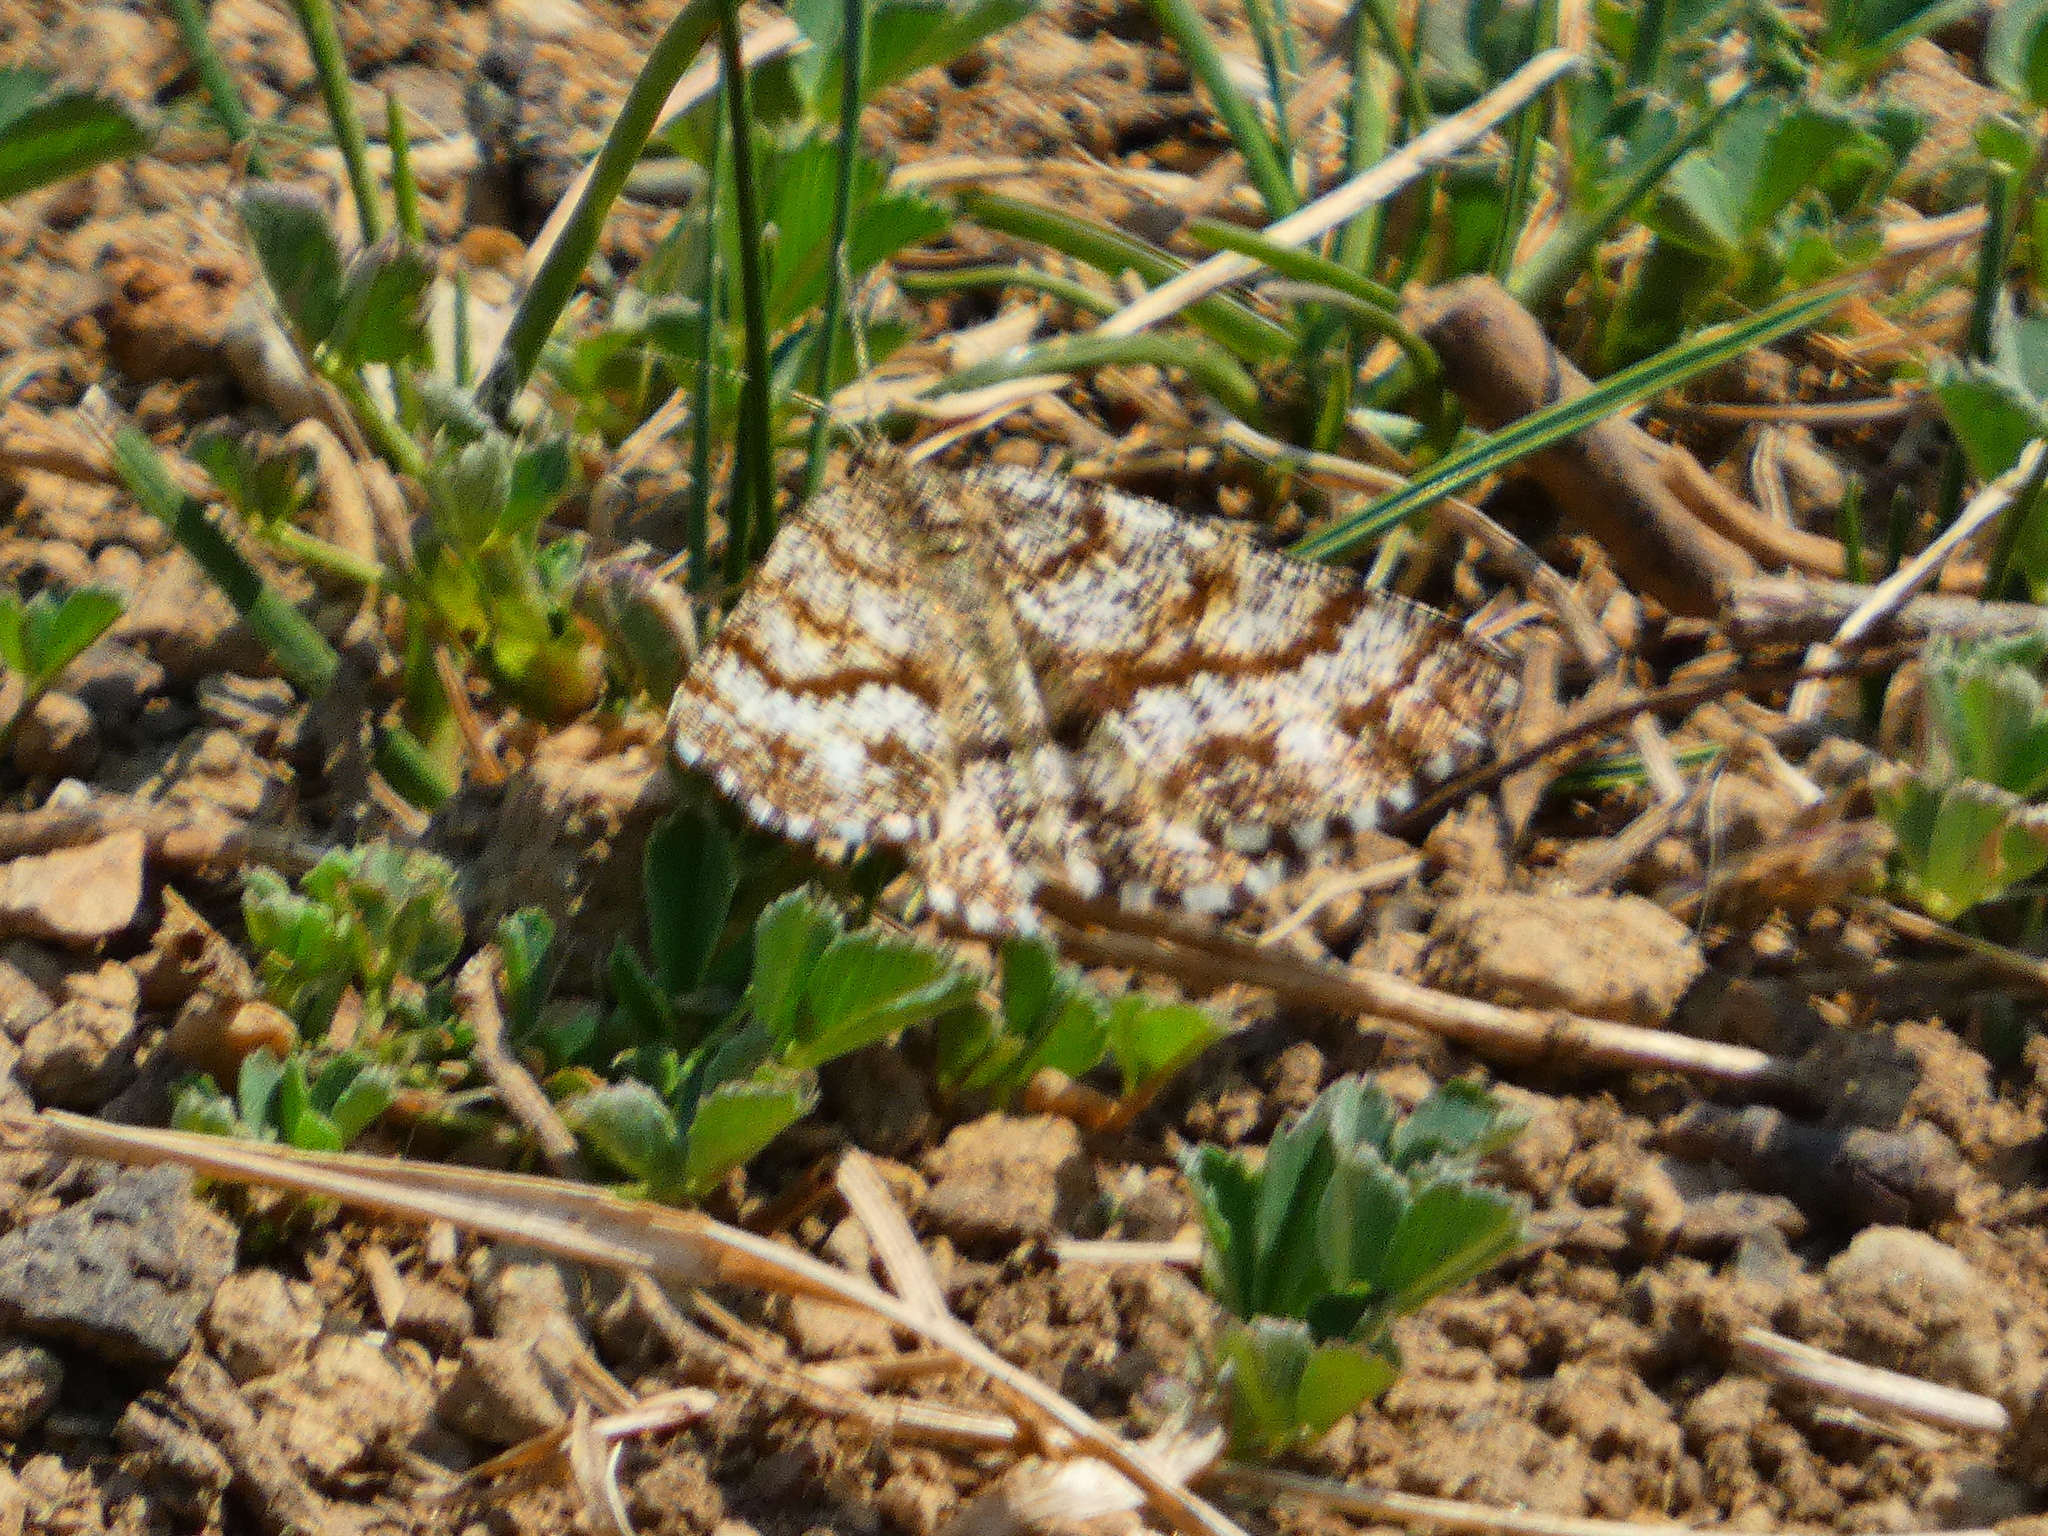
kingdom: Animalia
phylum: Arthropoda
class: Insecta
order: Lepidoptera
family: Geometridae
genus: Ematurga
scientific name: Ematurga atomaria
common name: Common heath
